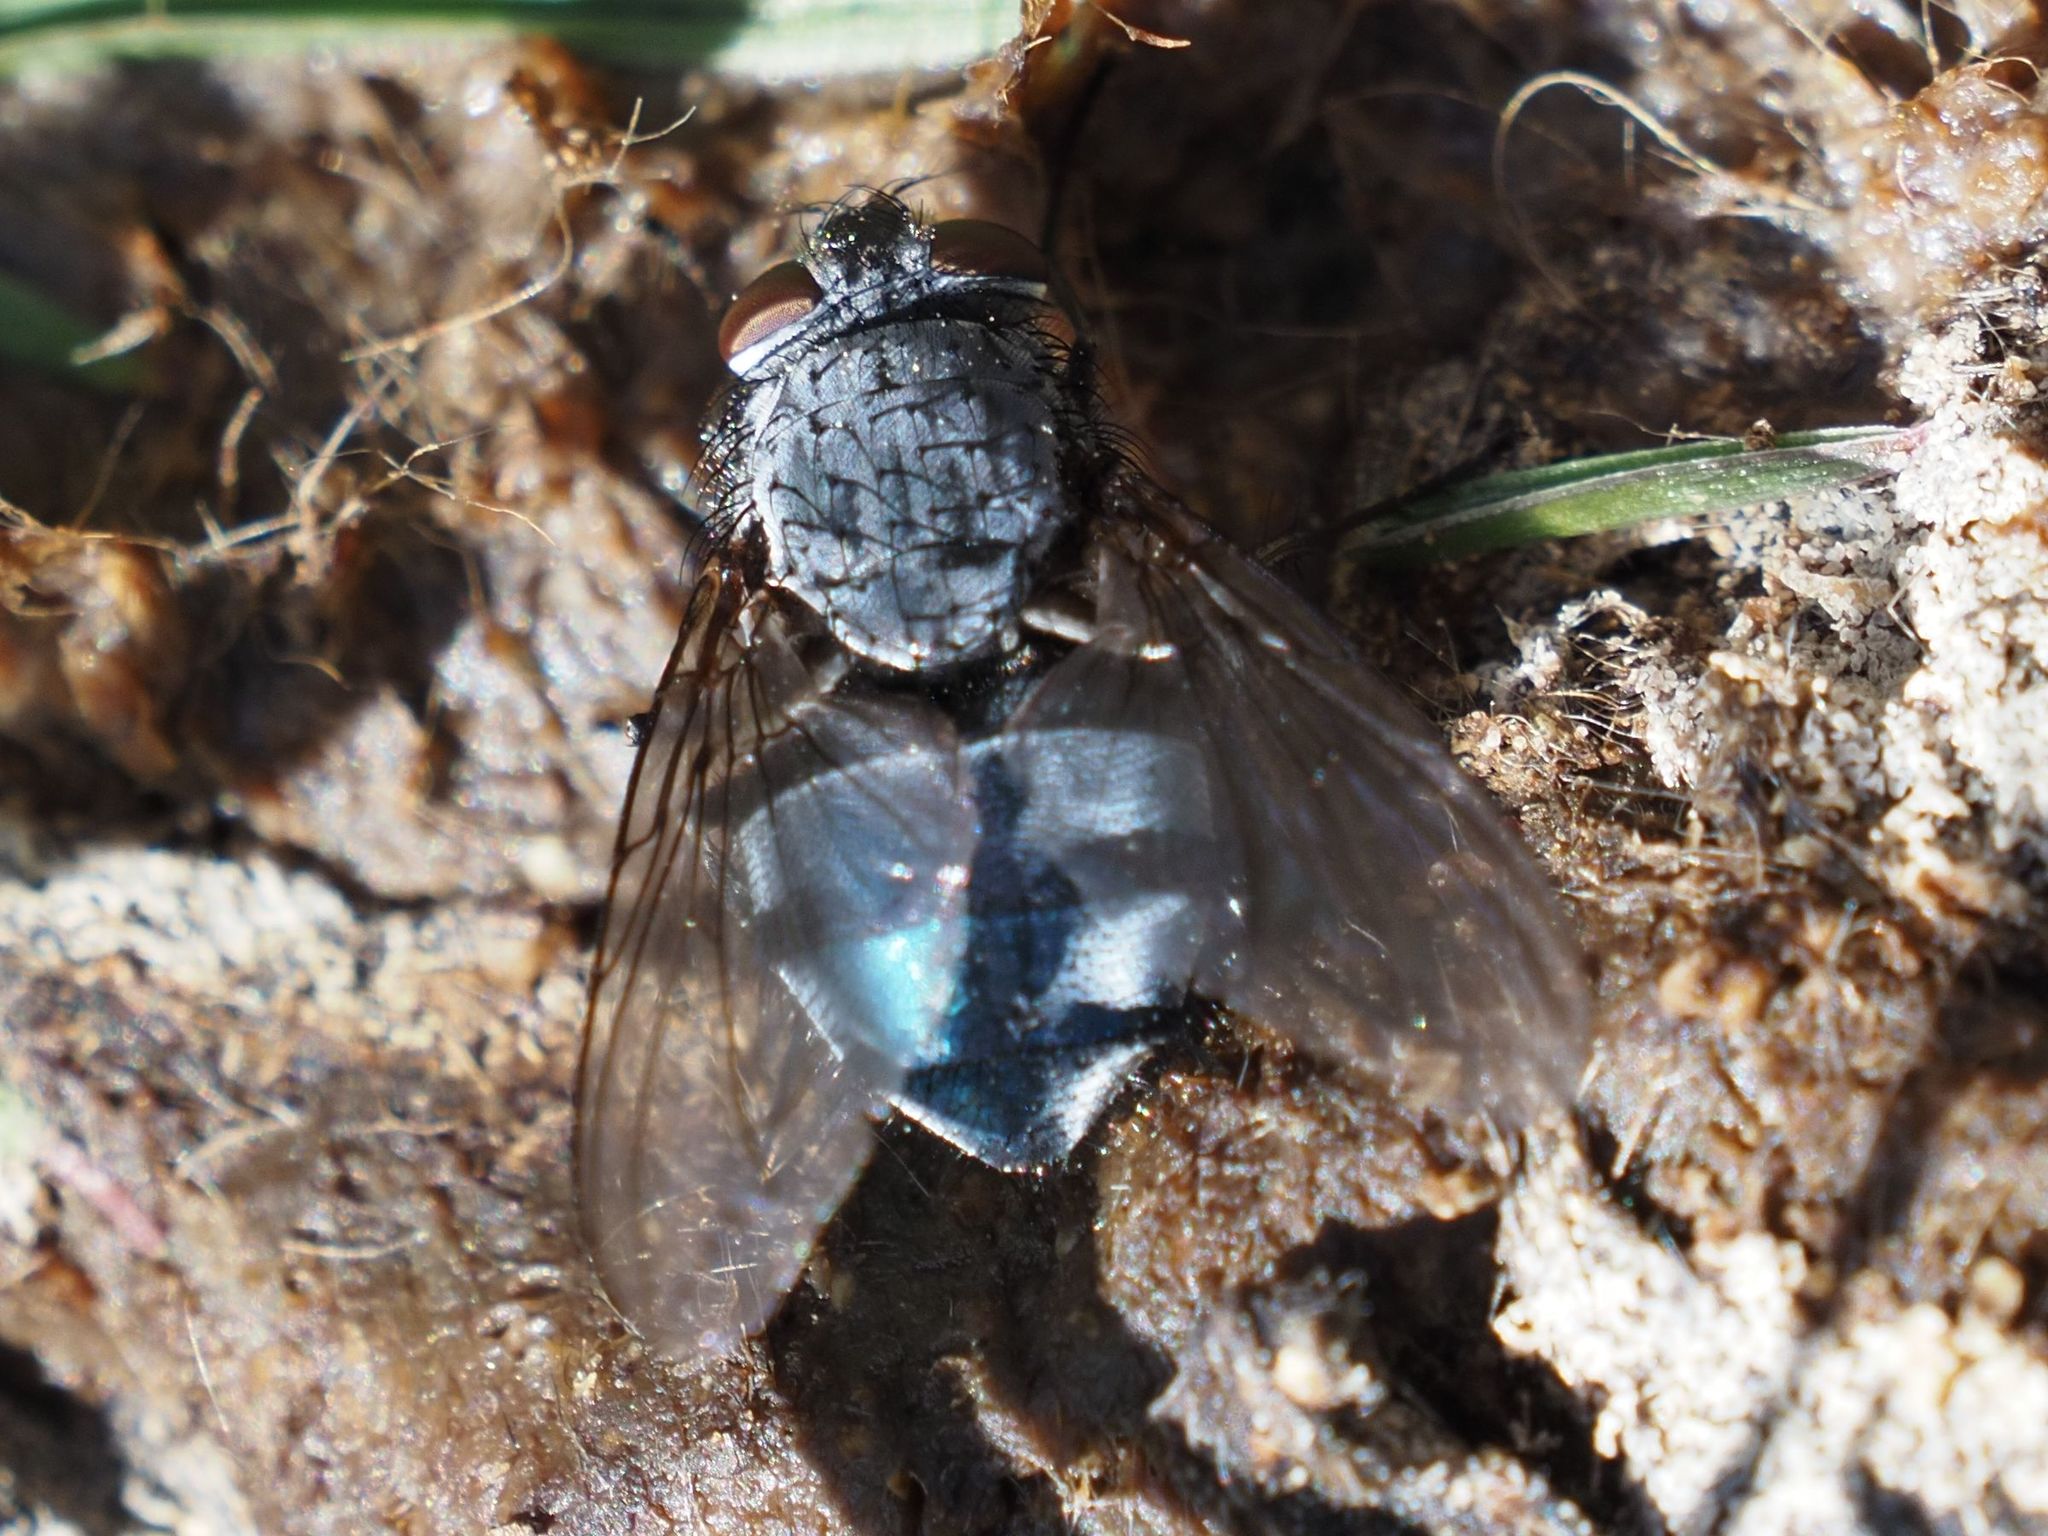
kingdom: Animalia
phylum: Arthropoda
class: Insecta
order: Diptera
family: Calliphoridae
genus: Calliphora
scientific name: Calliphora vicina
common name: Common blow flie
